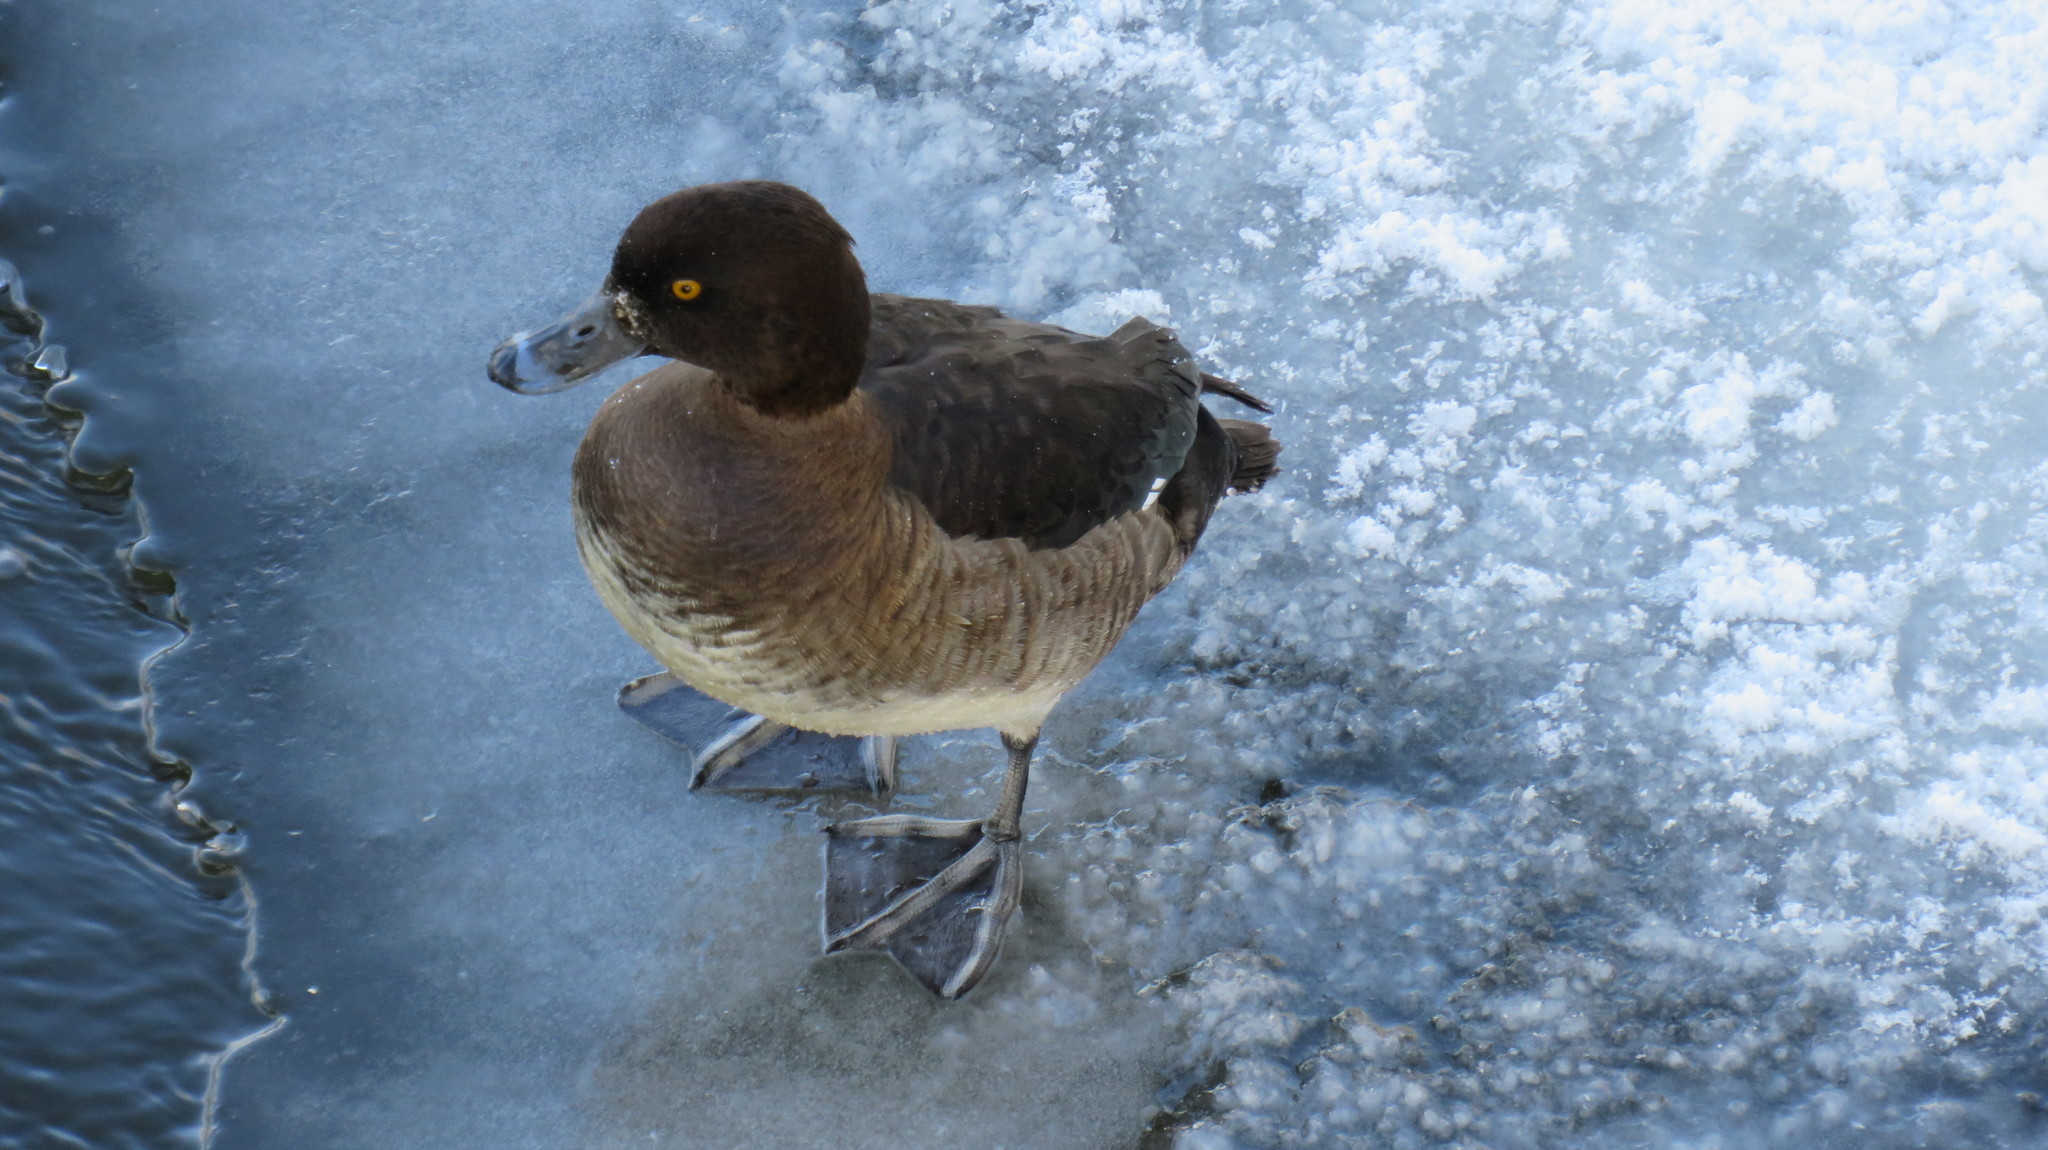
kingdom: Animalia
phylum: Chordata
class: Aves
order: Anseriformes
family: Anatidae
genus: Aythya
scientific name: Aythya fuligula
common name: Tufted duck
